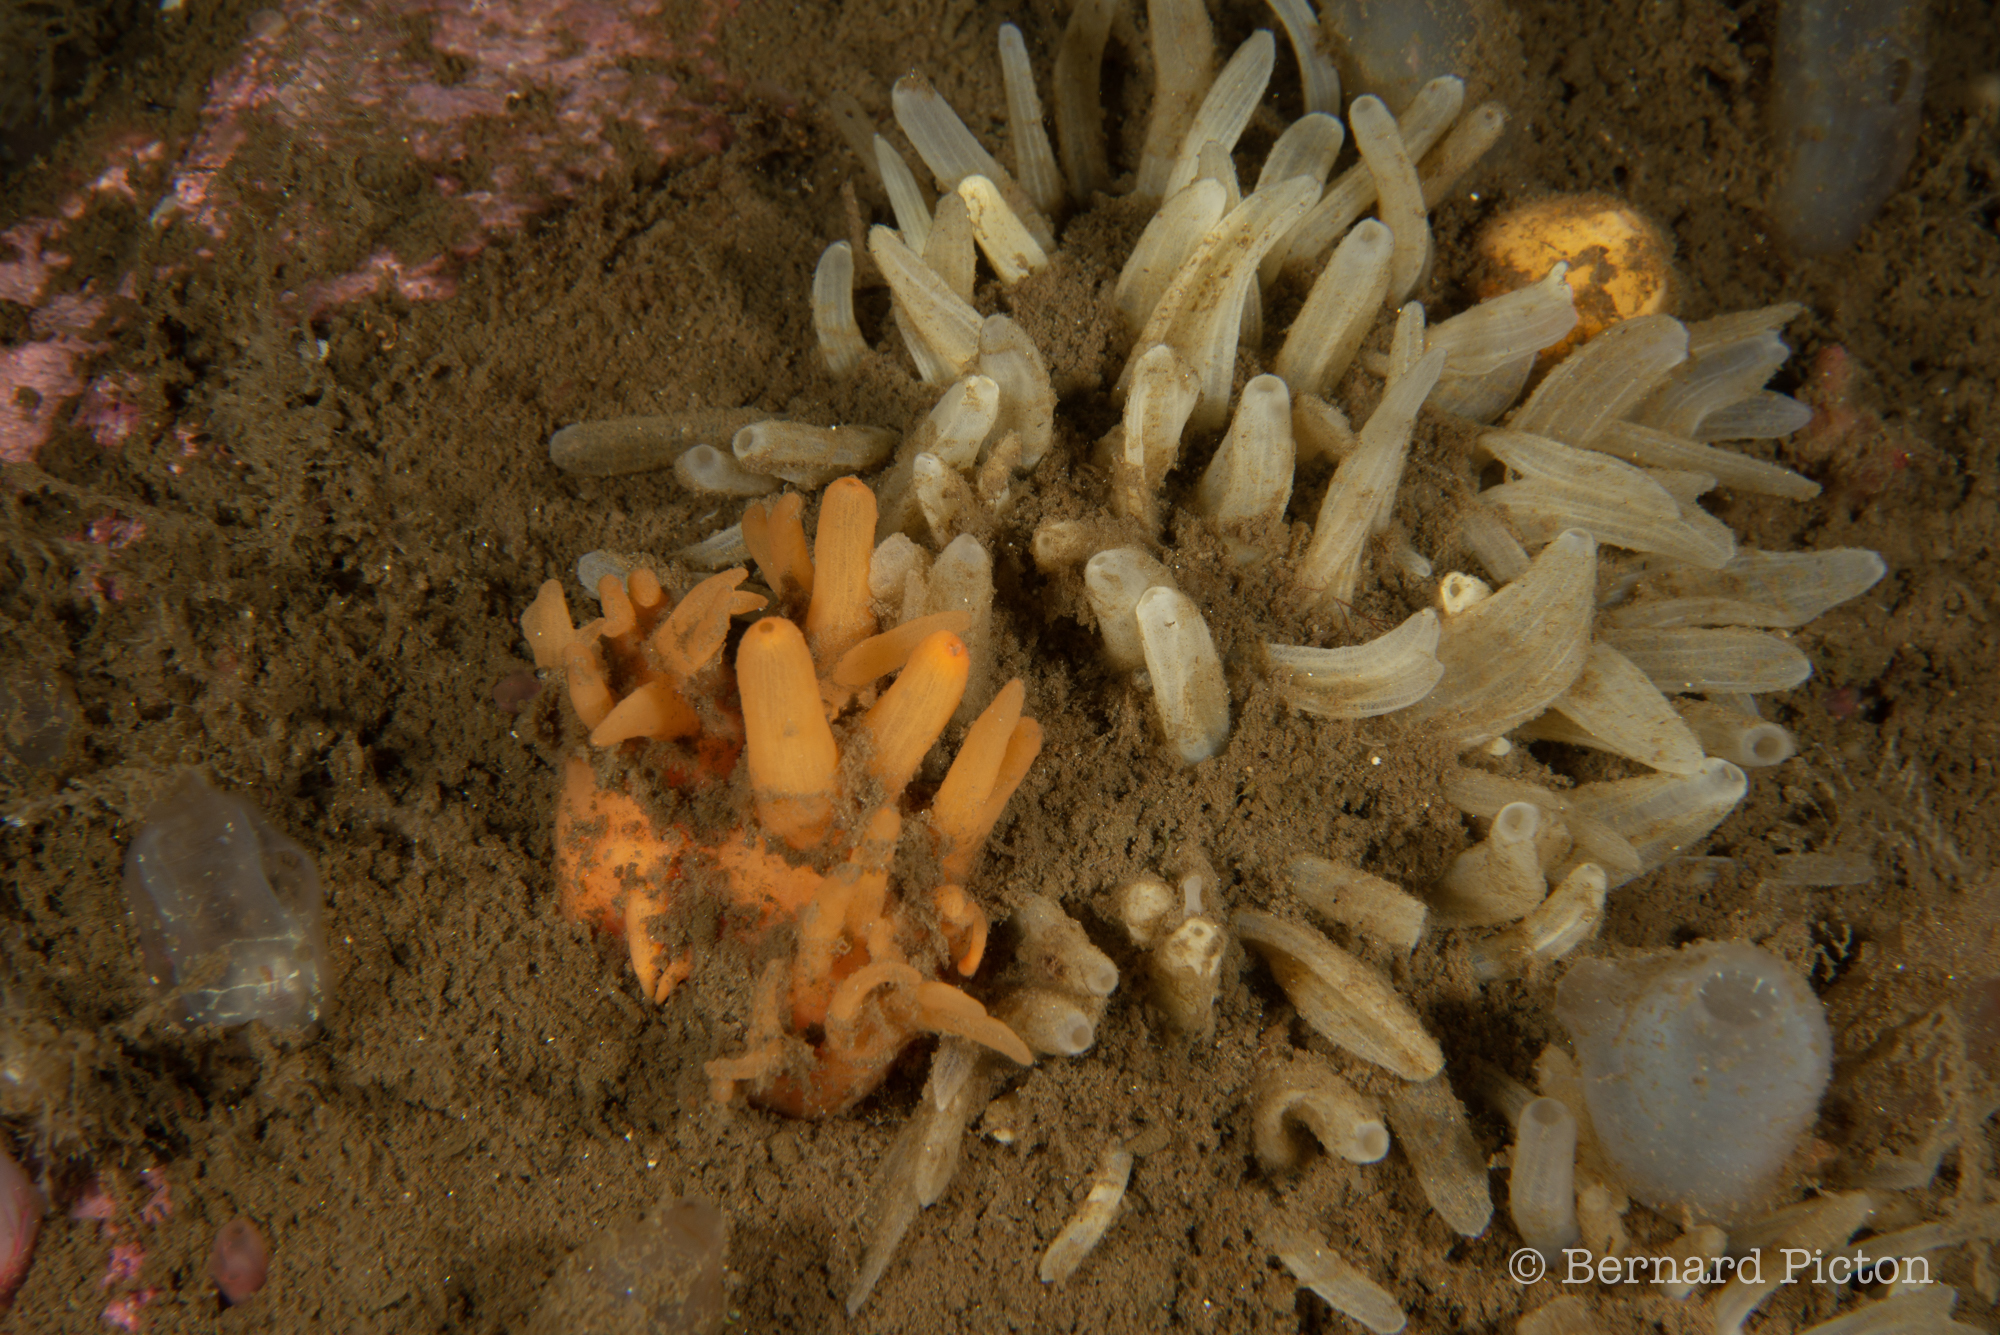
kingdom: Animalia
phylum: Porifera
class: Demospongiae
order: Polymastiida
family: Polymastiidae
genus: Polymastia
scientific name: Polymastia boletiformis
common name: Massive horny sponge
